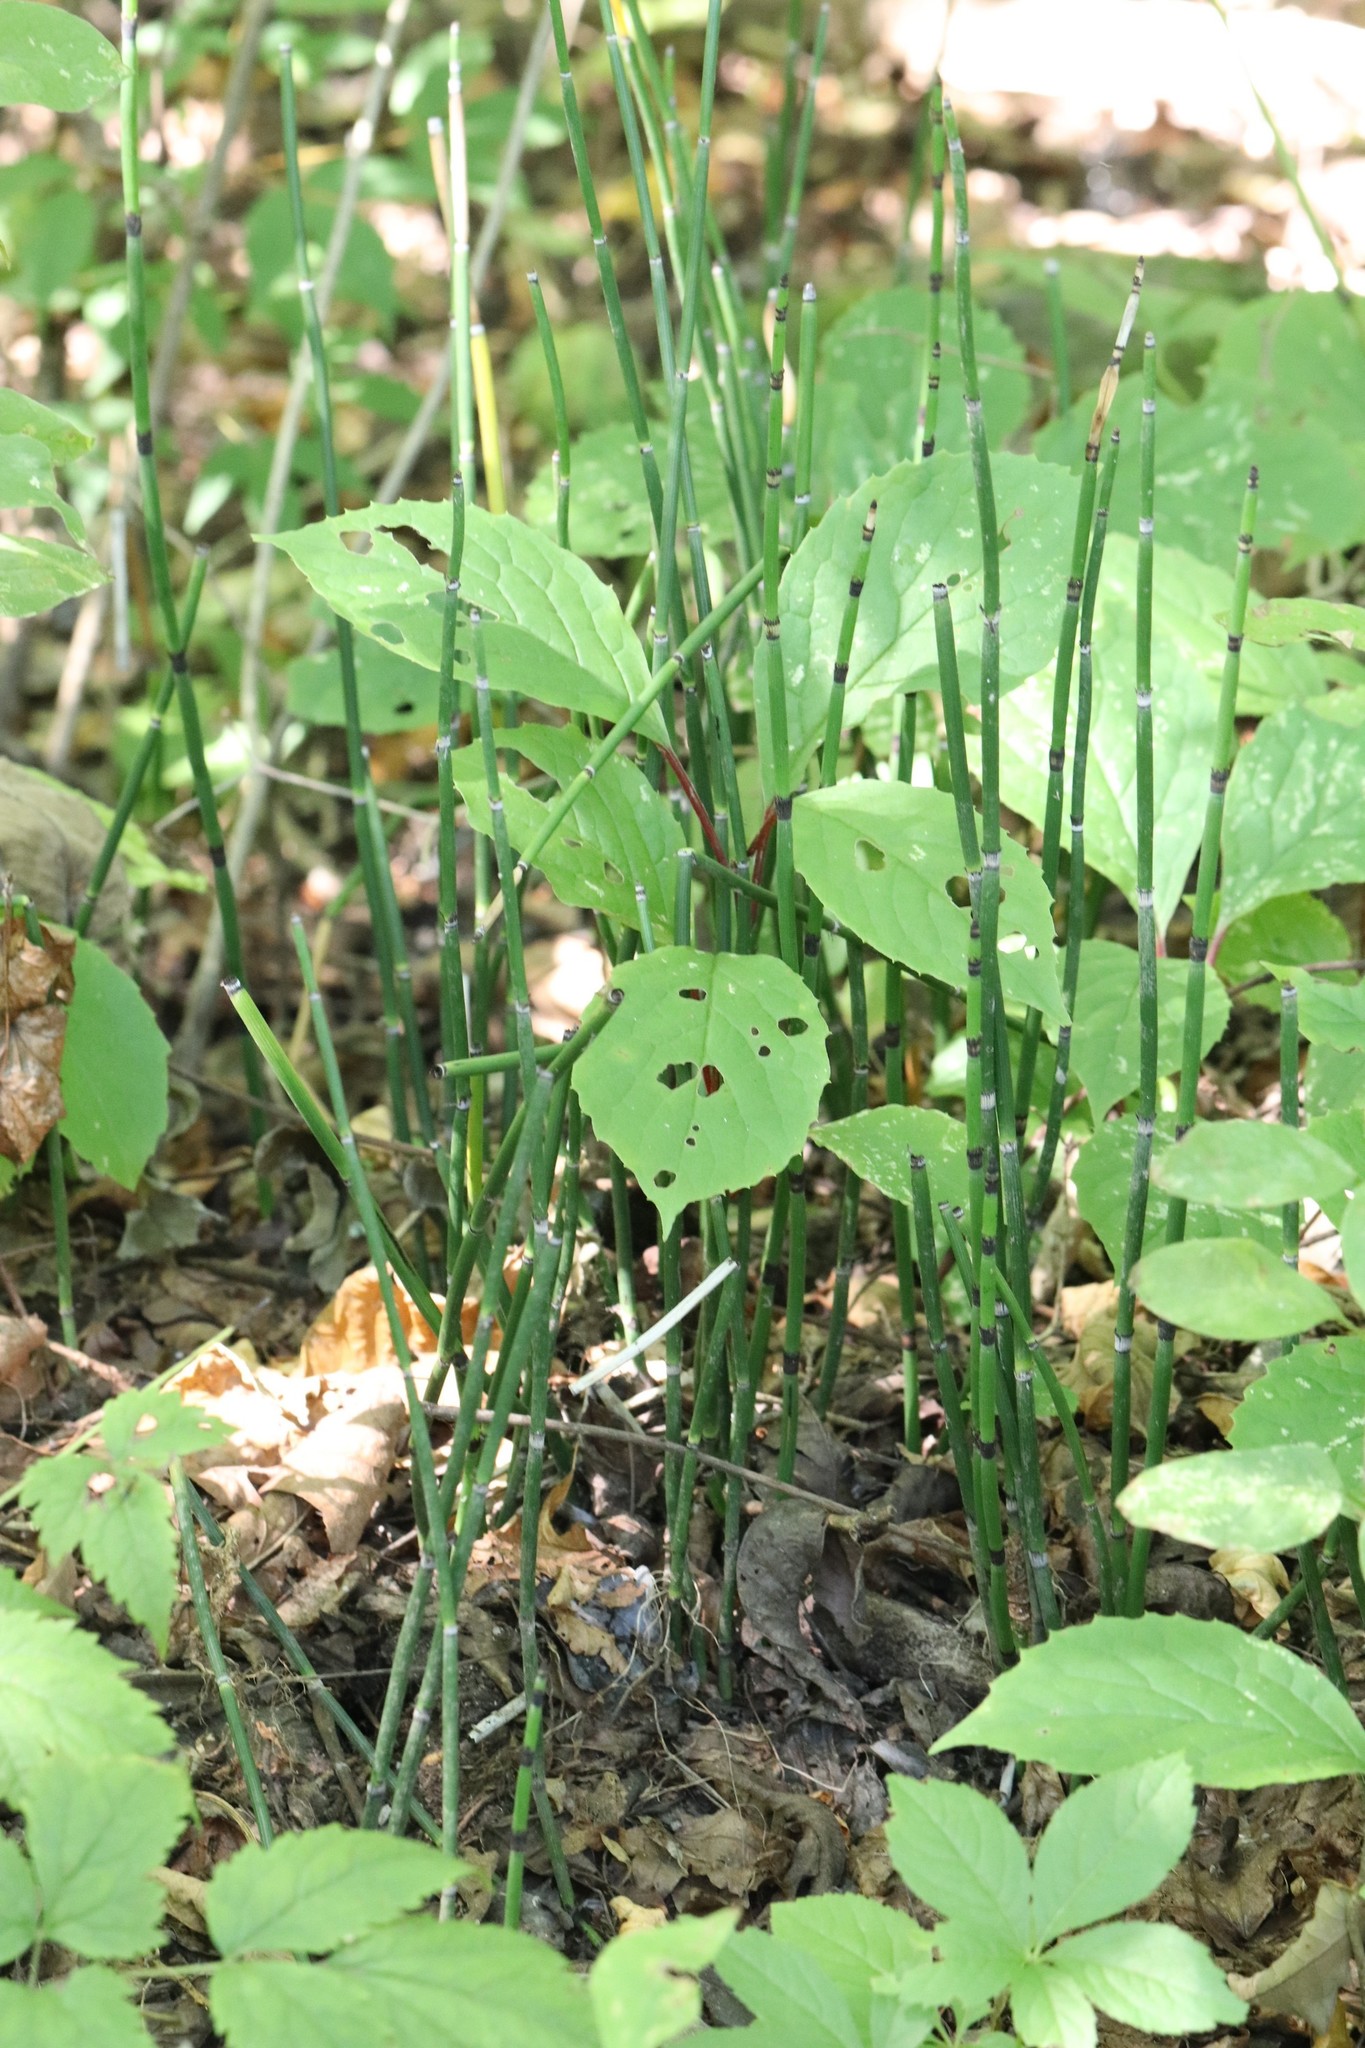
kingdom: Plantae
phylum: Tracheophyta
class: Polypodiopsida
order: Equisetales
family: Equisetaceae
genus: Equisetum
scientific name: Equisetum hyemale
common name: Rough horsetail
